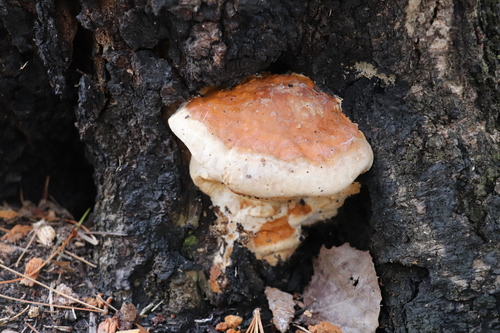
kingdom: Fungi
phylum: Basidiomycota
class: Agaricomycetes
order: Polyporales
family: Fomitopsidaceae
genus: Fomitopsis
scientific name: Fomitopsis pinicola
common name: Red-belted bracket
